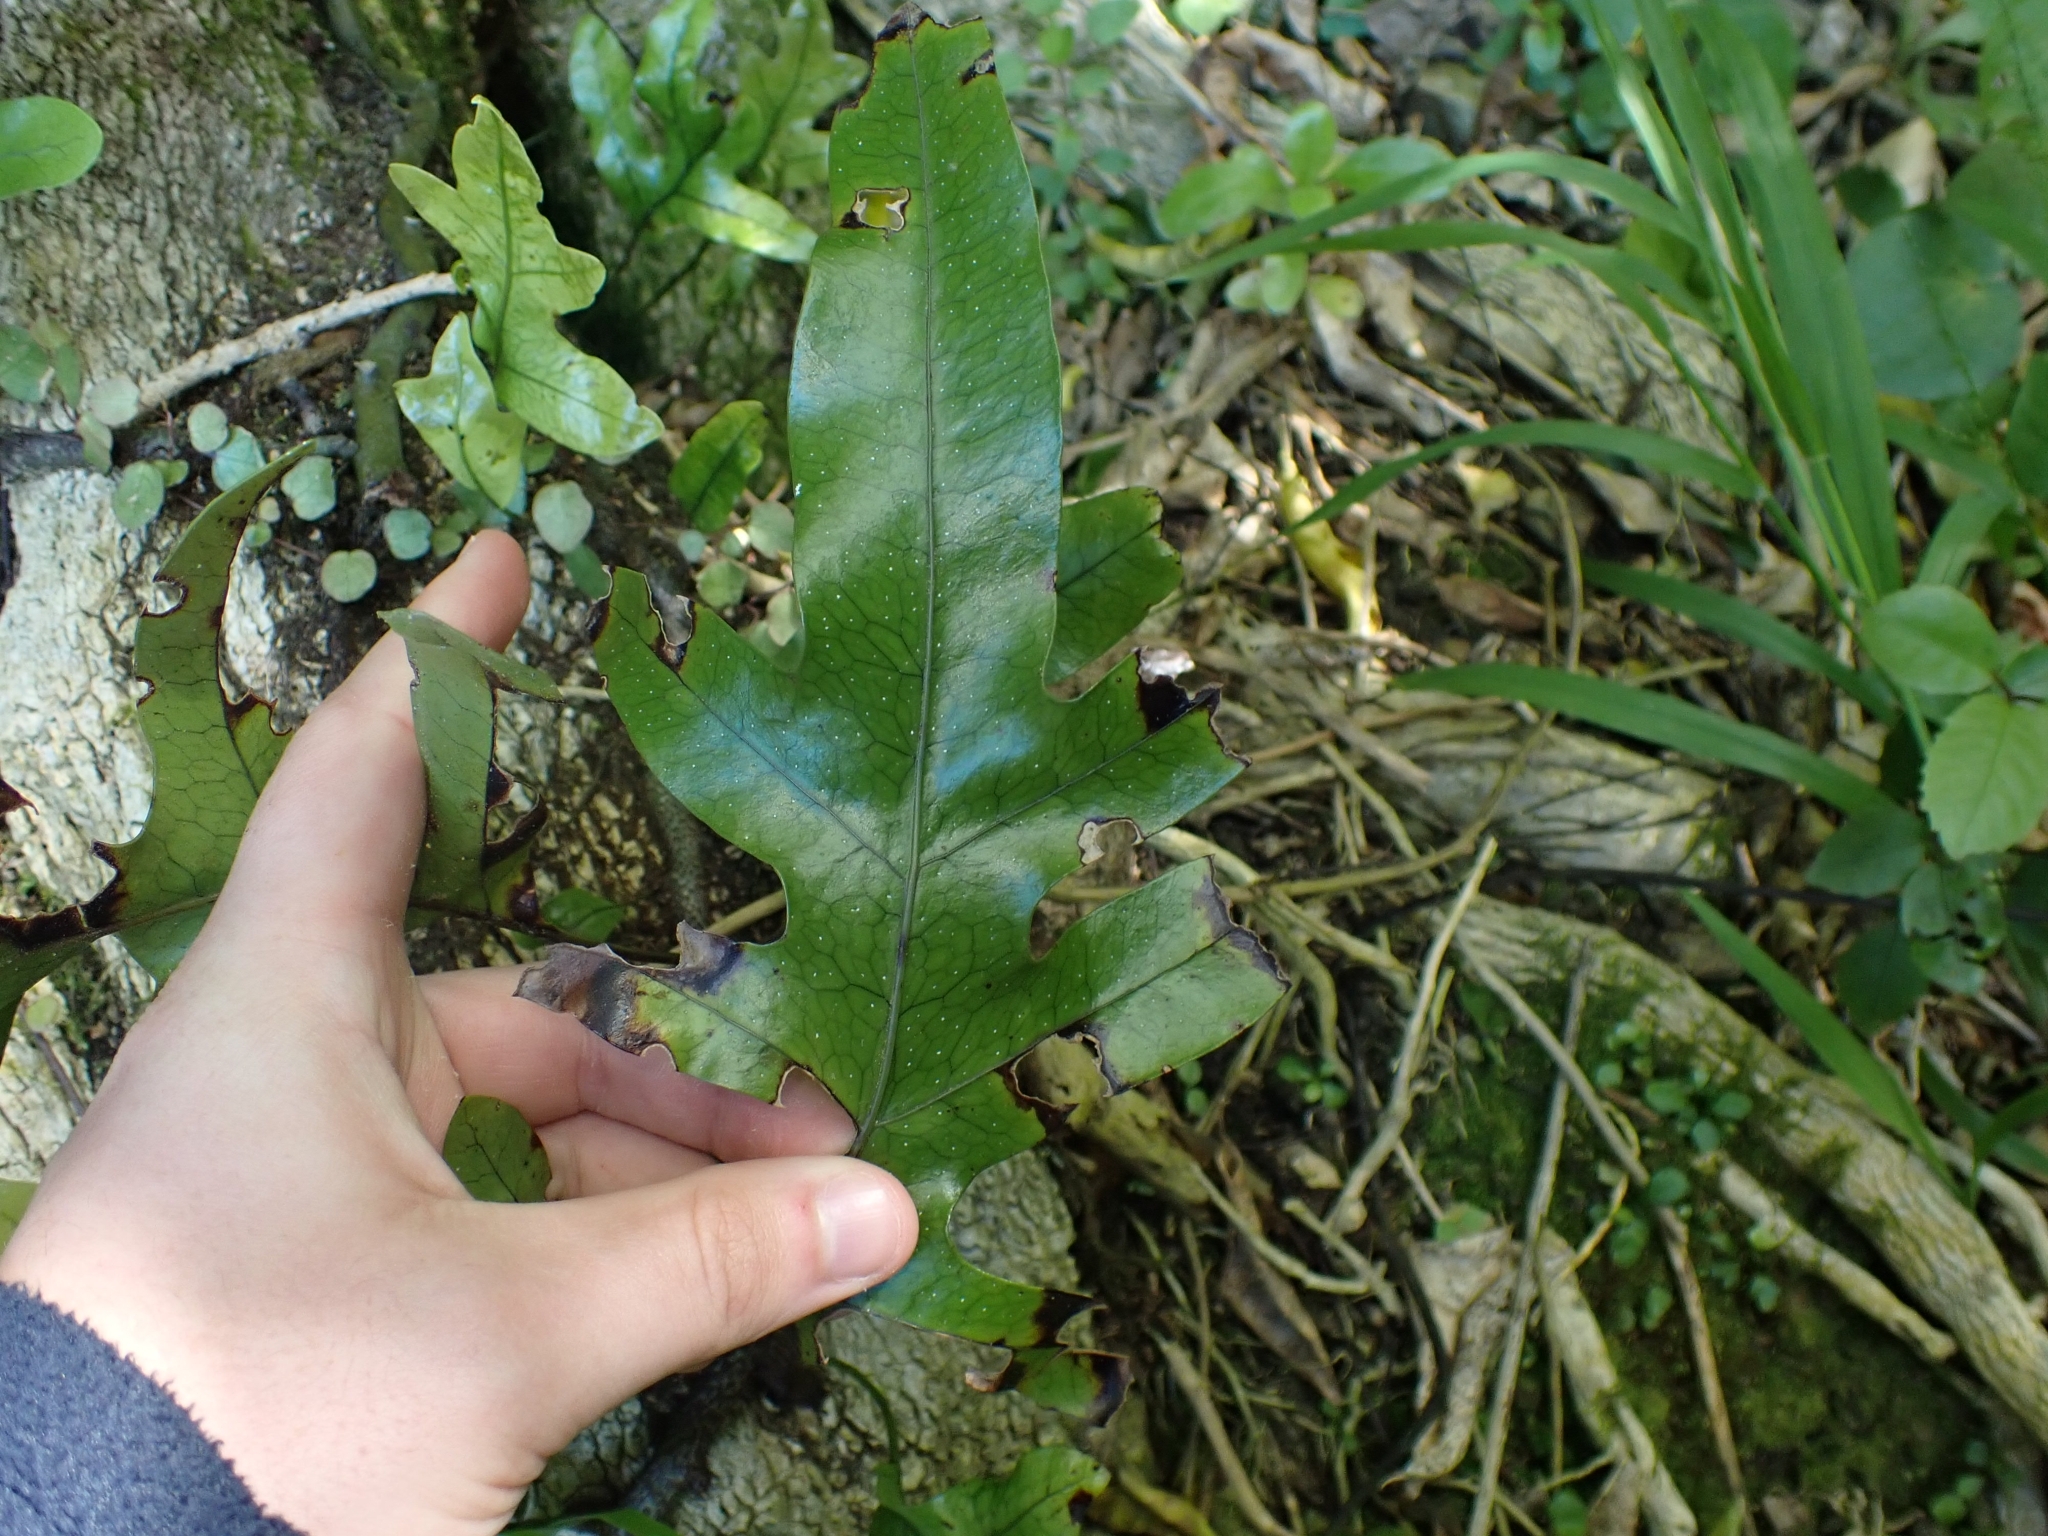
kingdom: Plantae
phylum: Tracheophyta
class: Polypodiopsida
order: Polypodiales
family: Polypodiaceae
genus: Lecanopteris
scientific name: Lecanopteris pustulata
